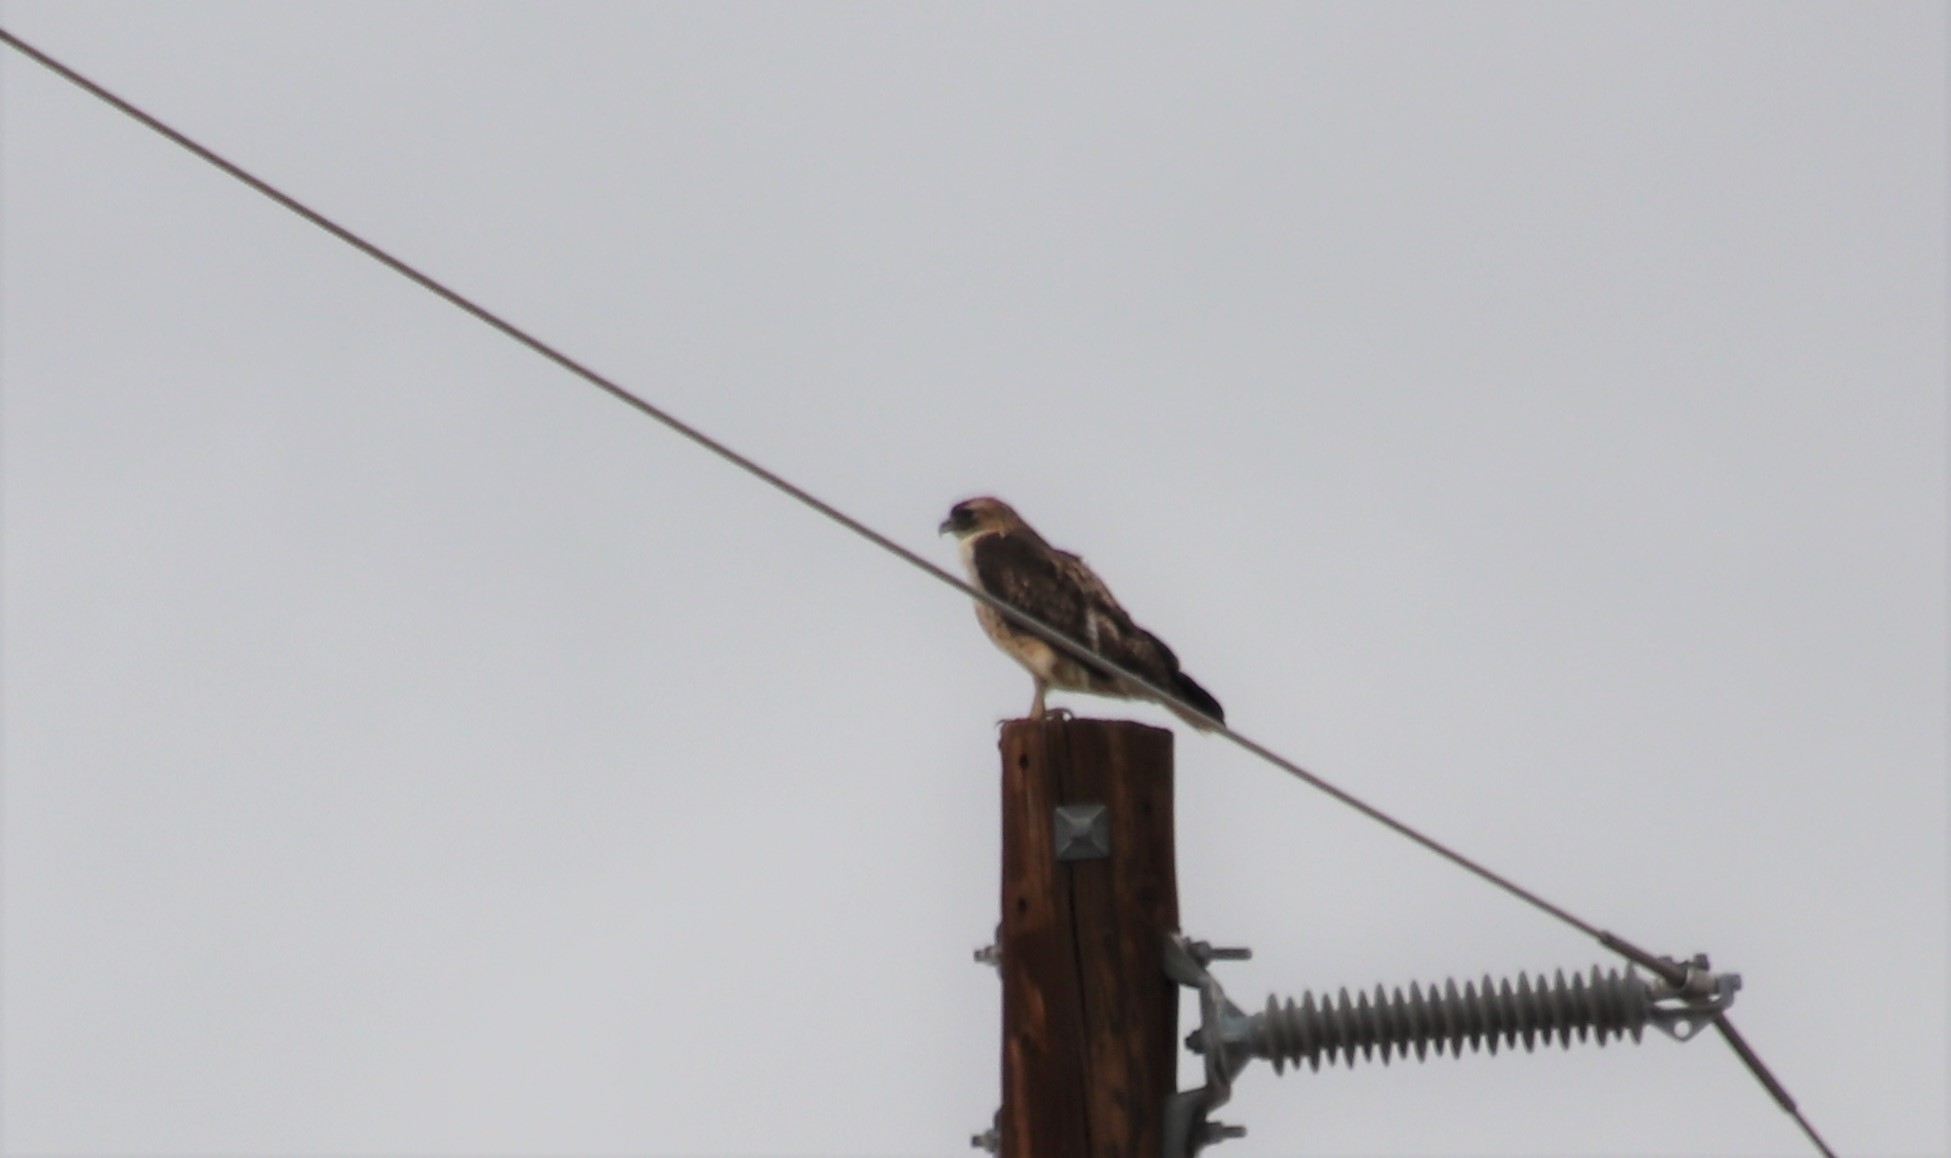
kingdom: Animalia
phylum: Chordata
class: Aves
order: Accipitriformes
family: Accipitridae
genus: Buteo
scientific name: Buteo jamaicensis
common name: Red-tailed hawk
